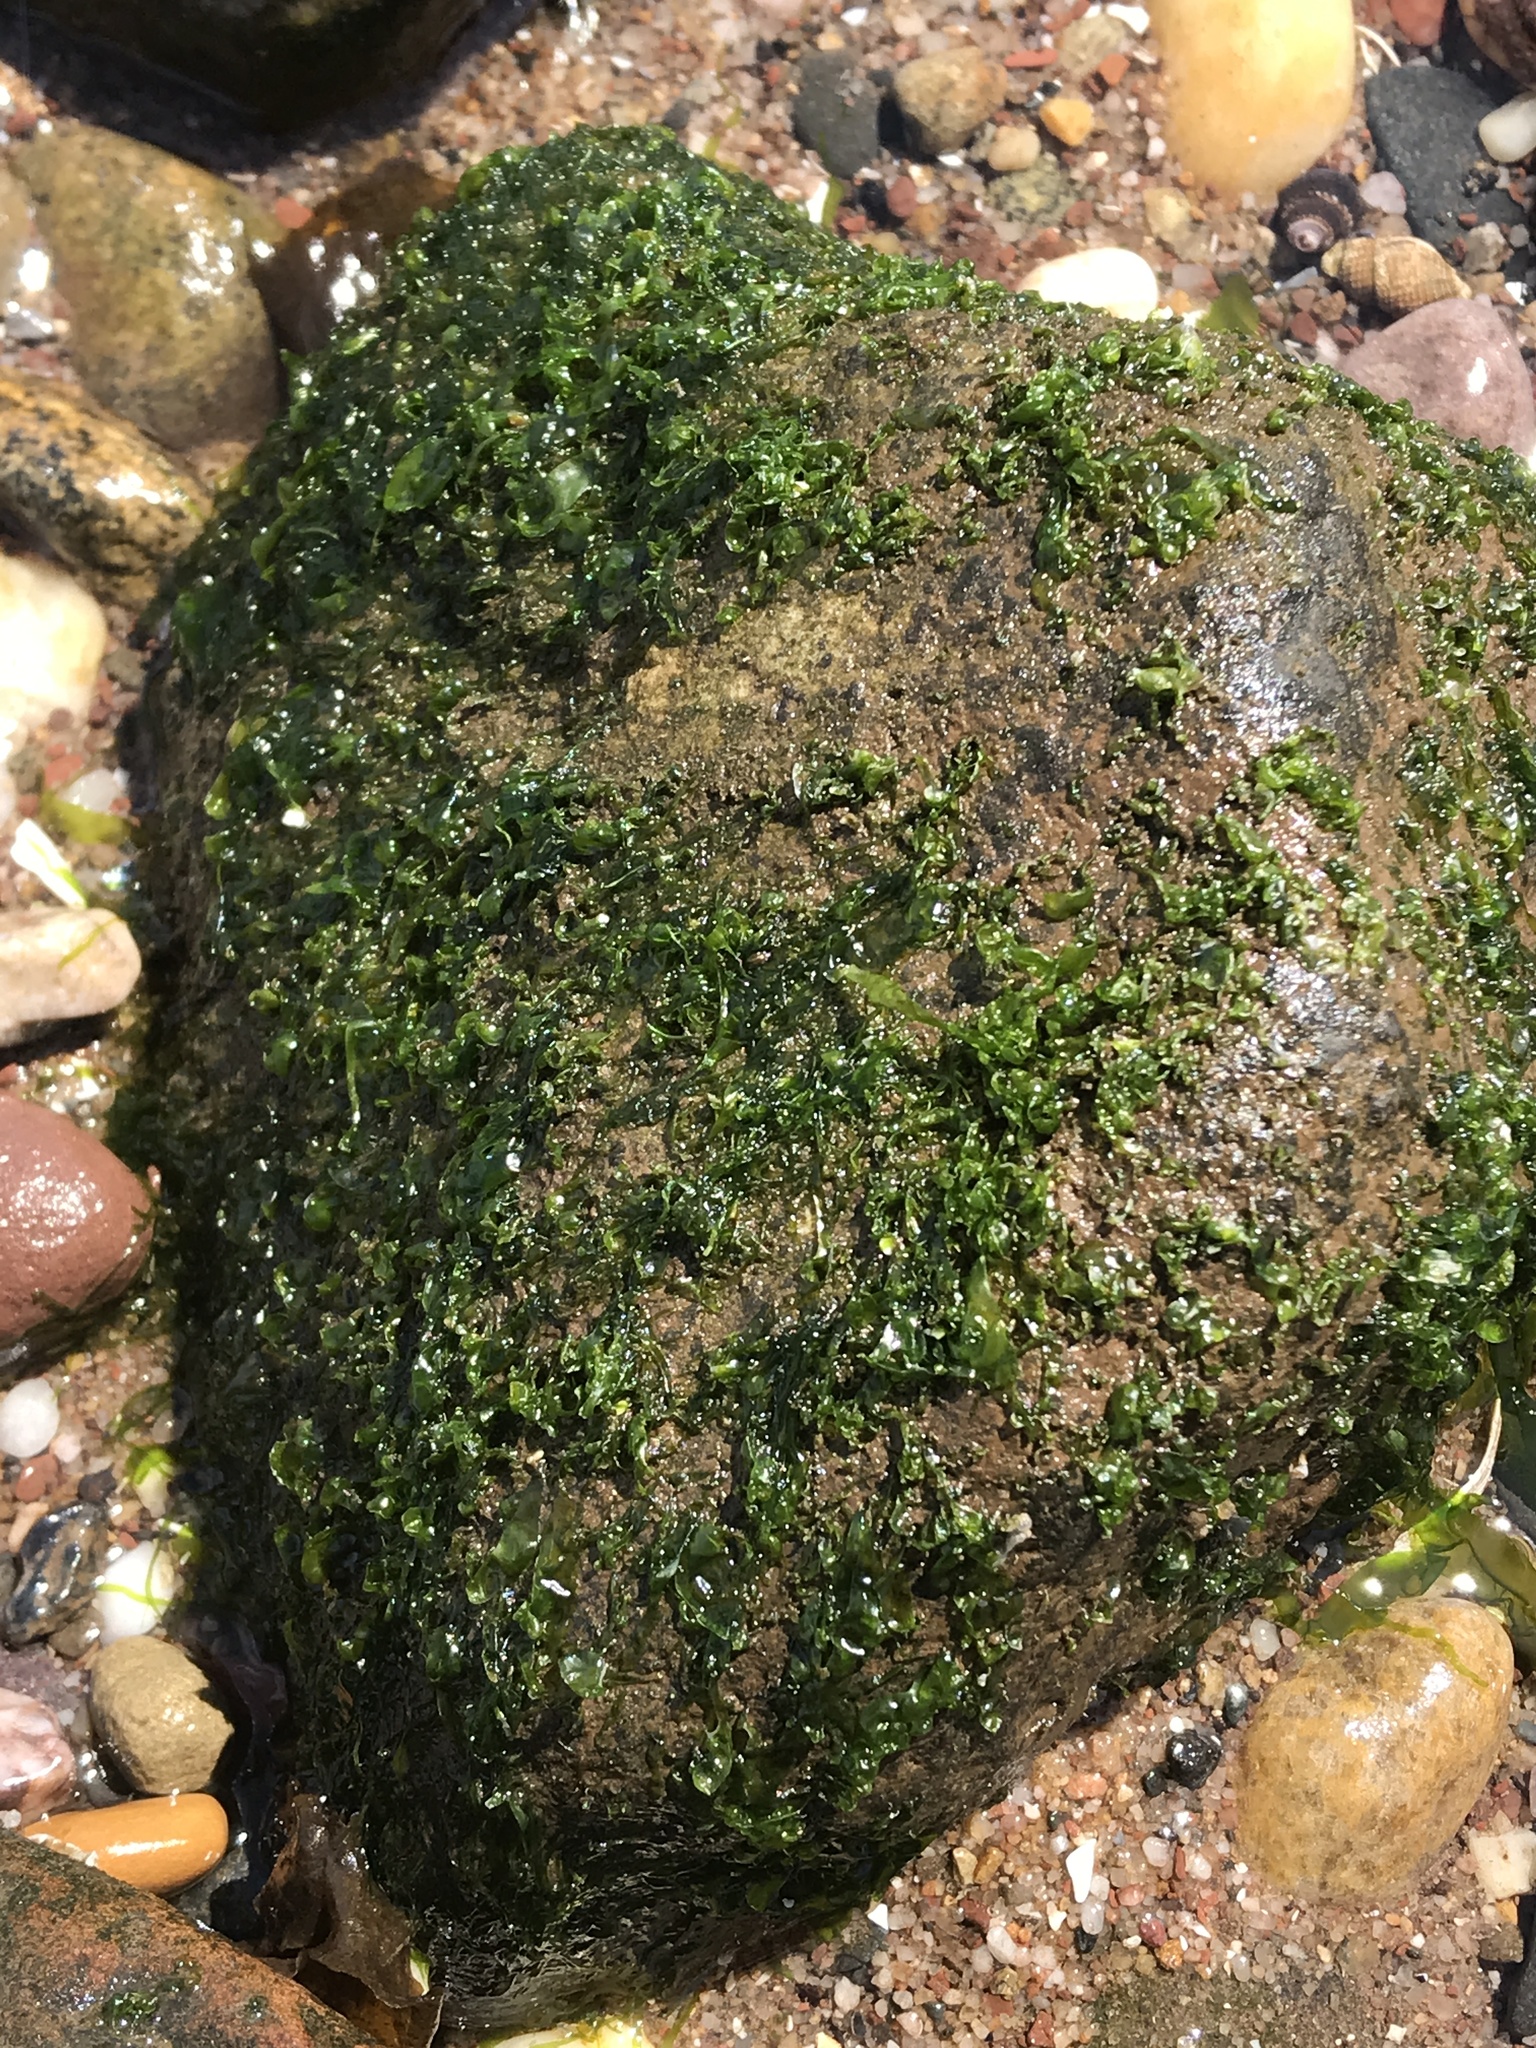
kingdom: Plantae
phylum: Chlorophyta
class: Ulvophyceae
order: Ulvales
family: Ulvaceae
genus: Ulva
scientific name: Ulva intestinalis
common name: Gut weed
